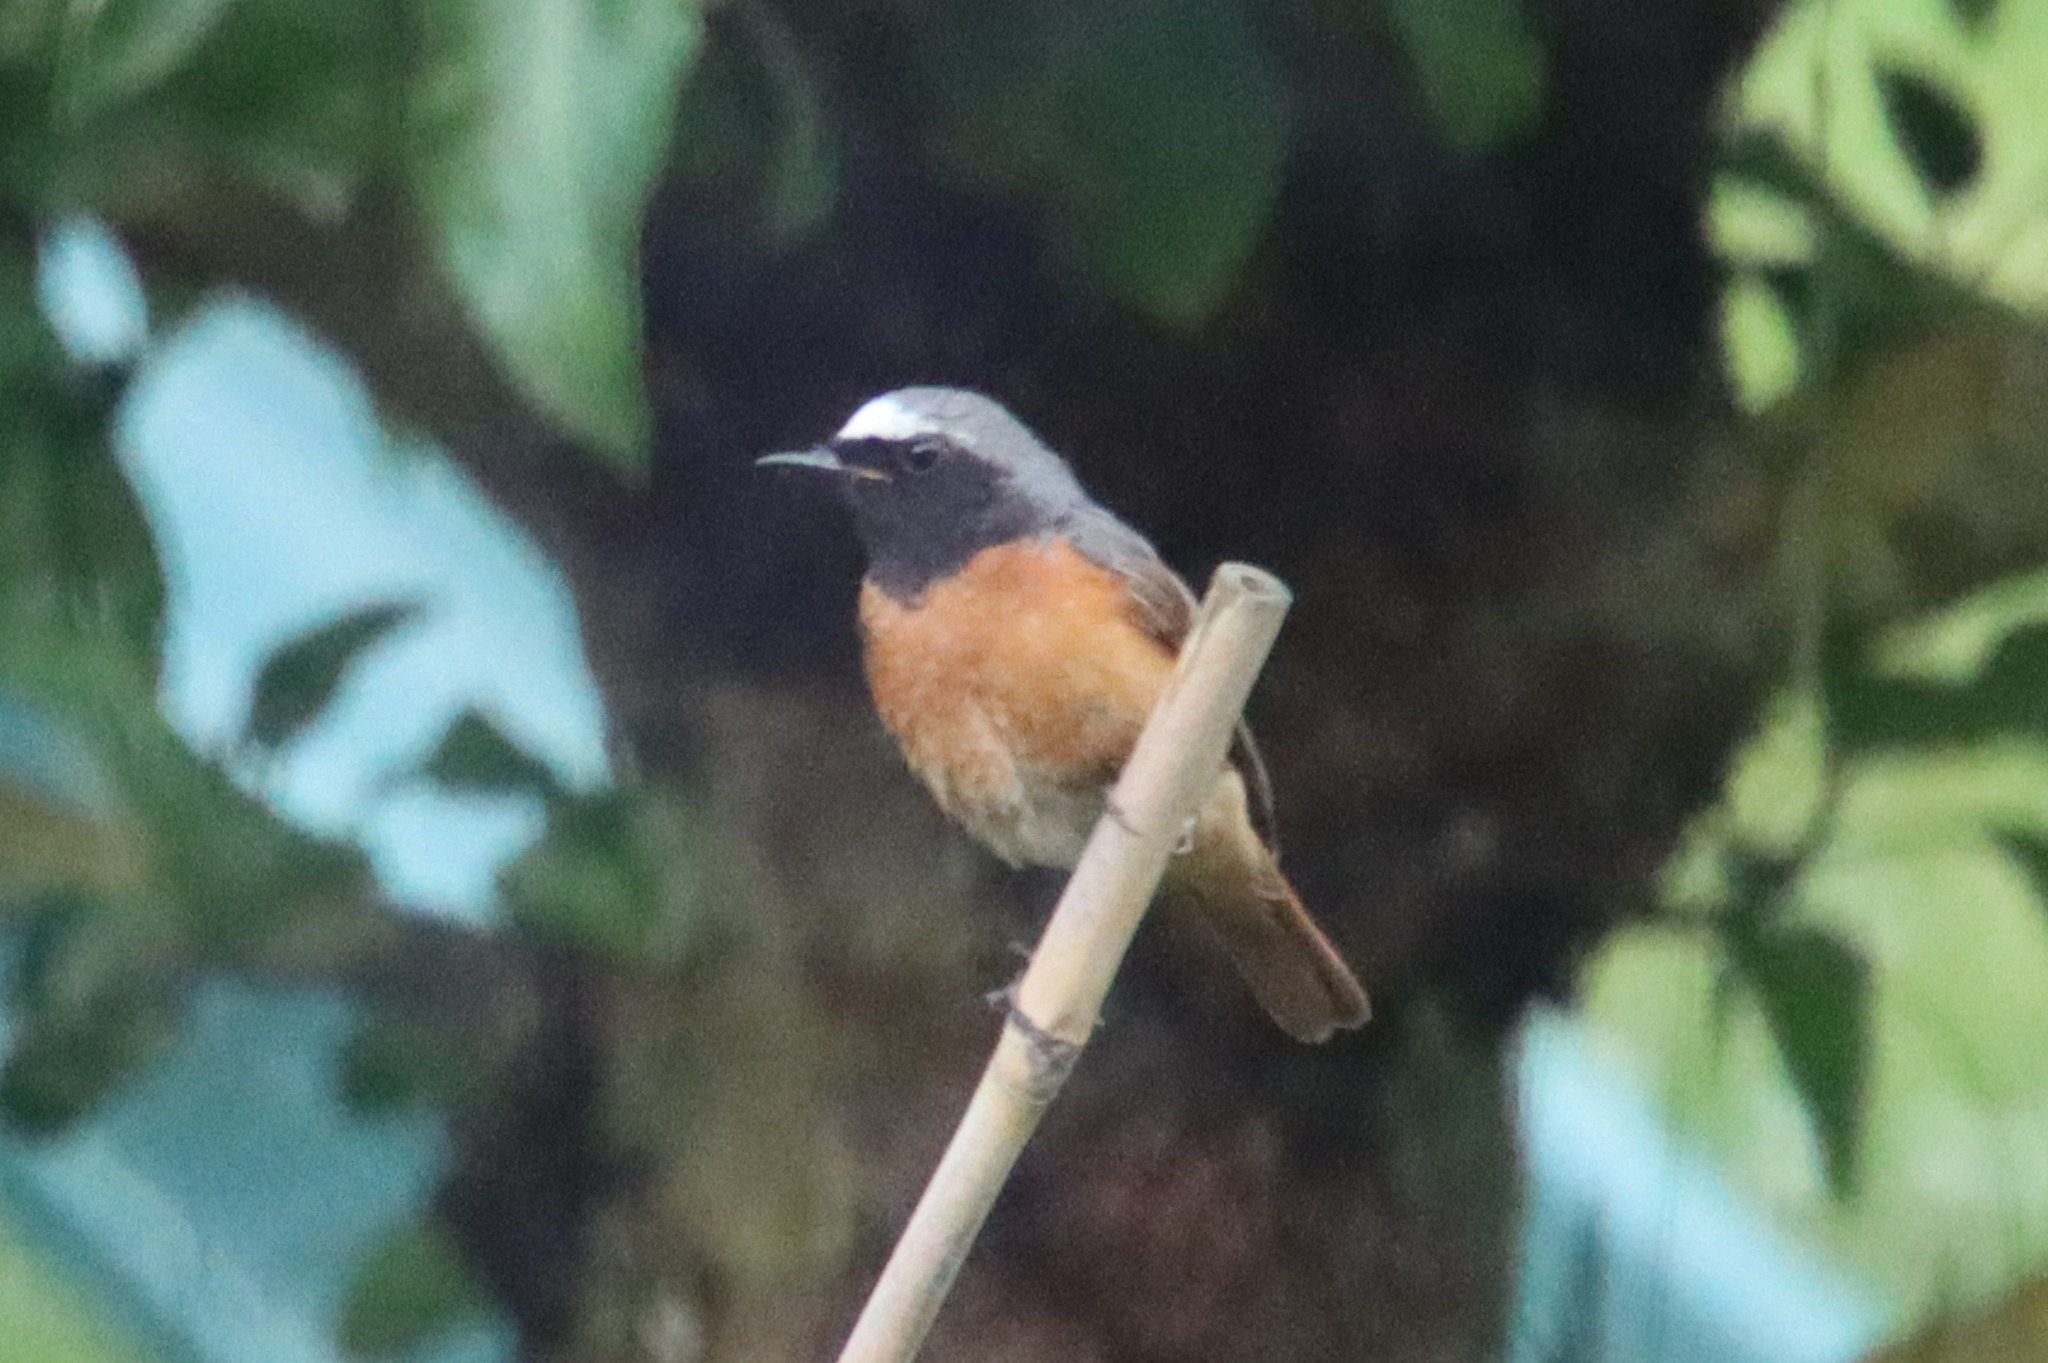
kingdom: Animalia
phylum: Chordata
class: Aves
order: Passeriformes
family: Muscicapidae
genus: Phoenicurus
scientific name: Phoenicurus phoenicurus
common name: Common redstart
